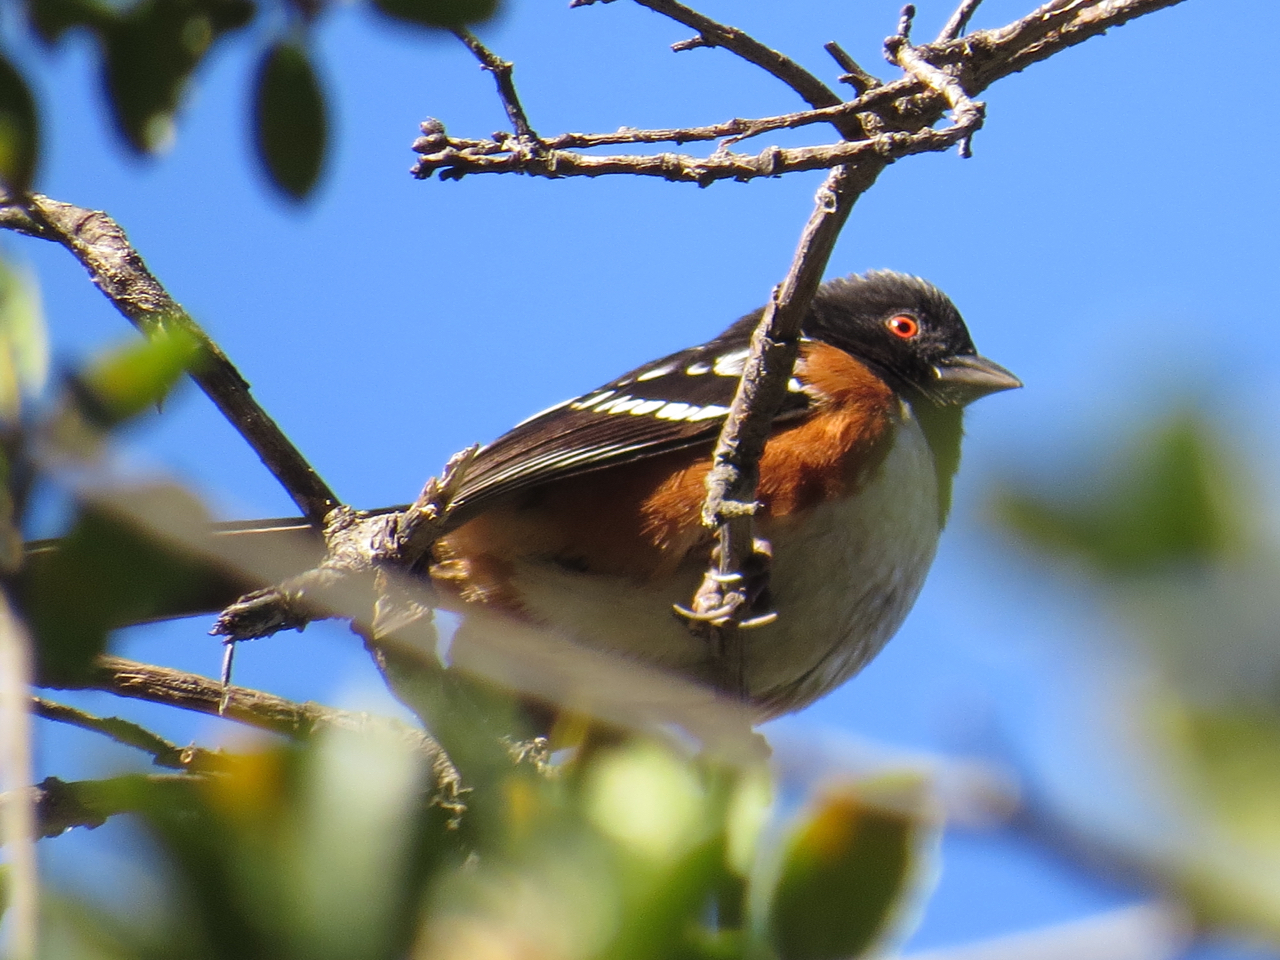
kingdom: Animalia
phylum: Chordata
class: Aves
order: Passeriformes
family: Passerellidae
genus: Pipilo
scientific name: Pipilo maculatus
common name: Spotted towhee
